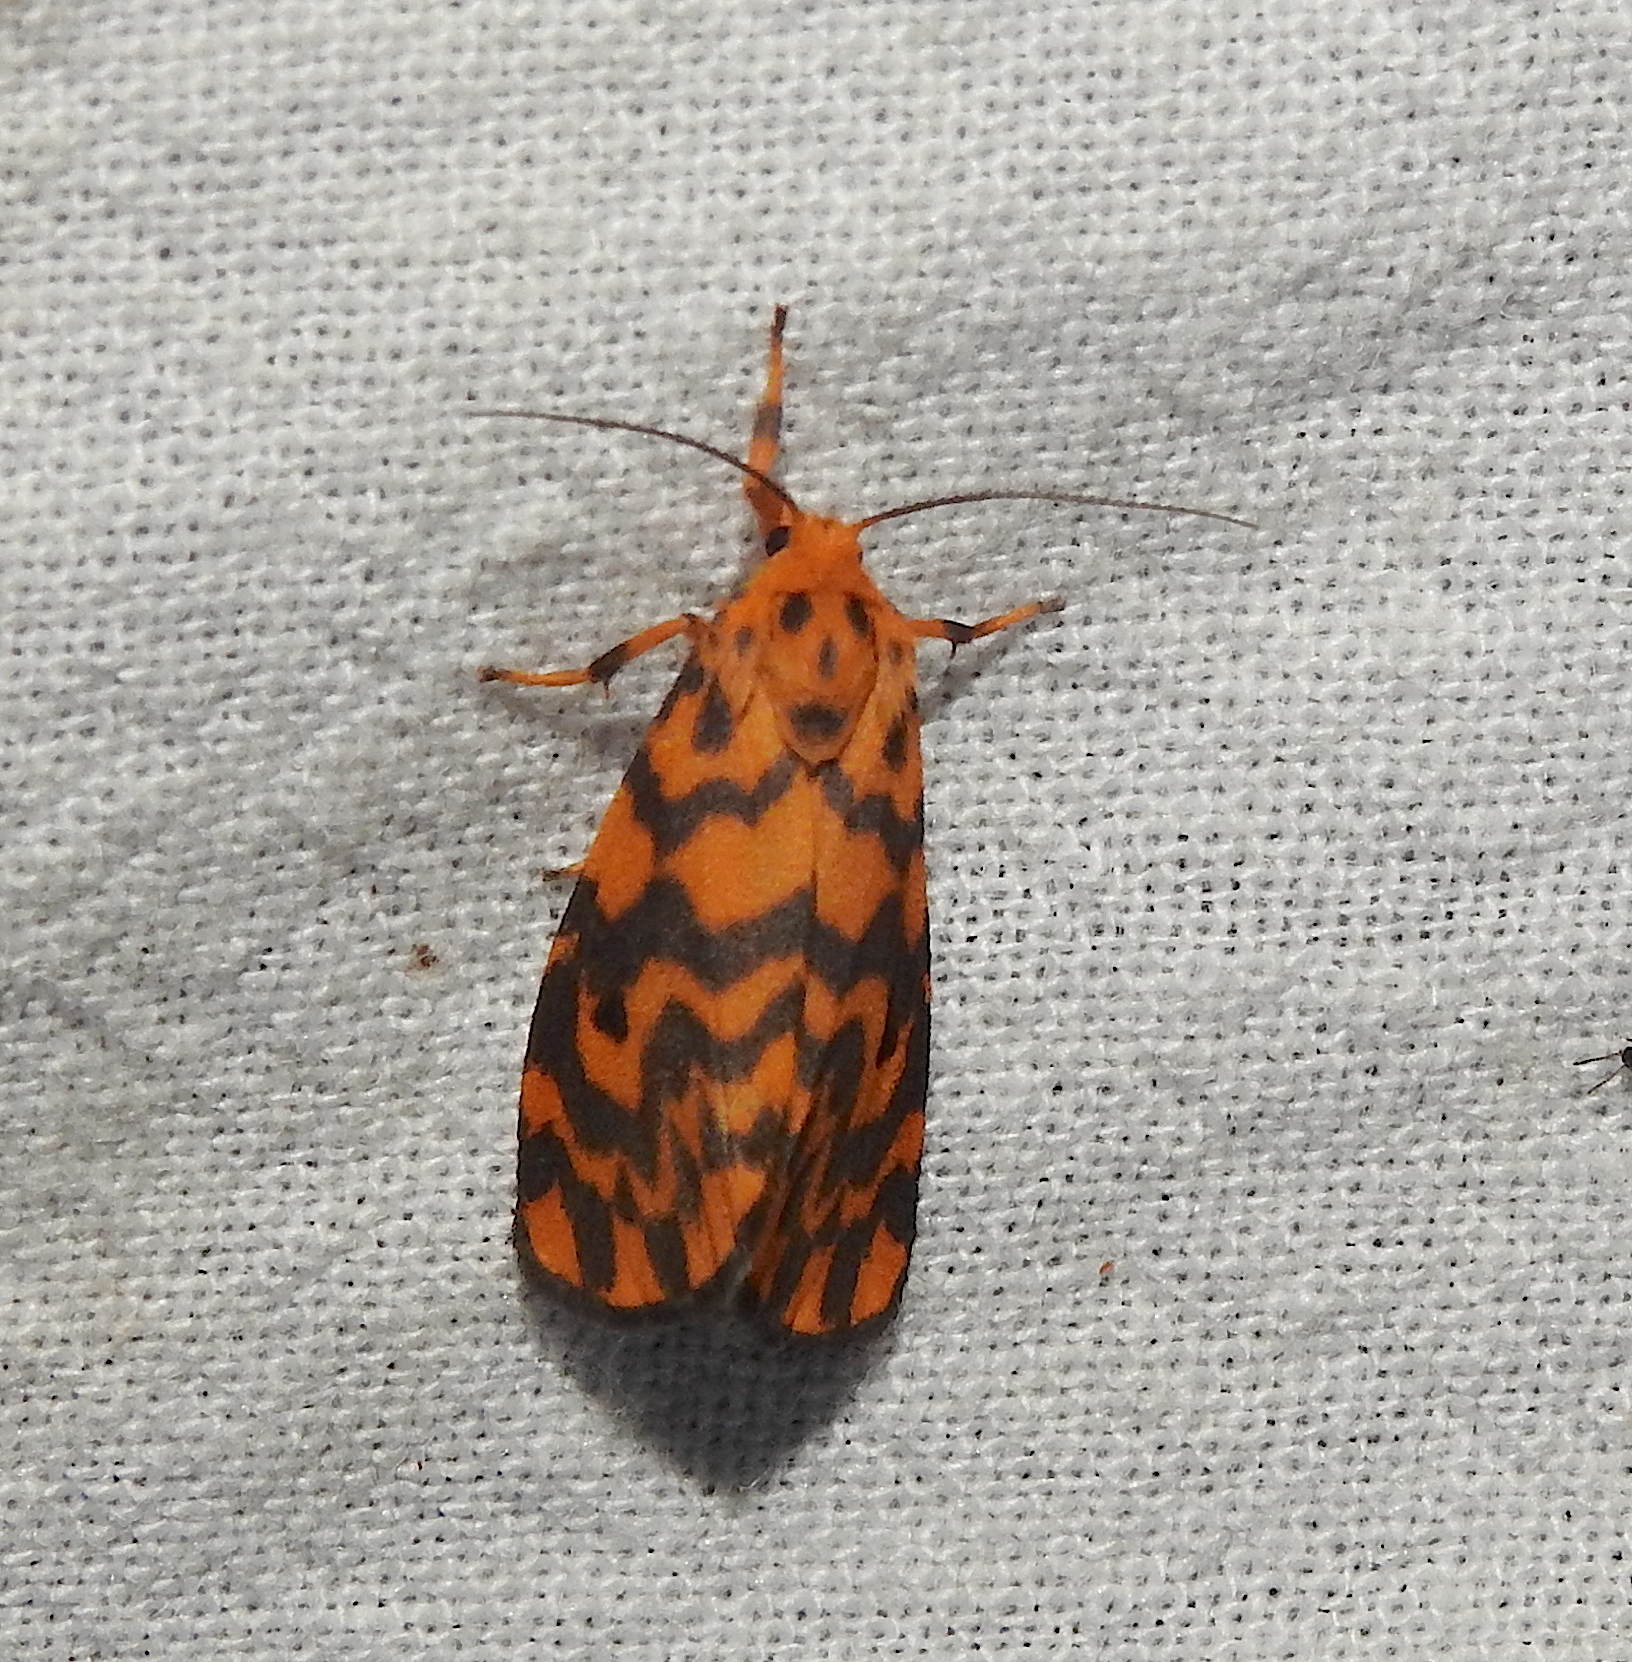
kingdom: Animalia
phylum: Arthropoda
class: Insecta
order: Lepidoptera
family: Erebidae
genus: Nepita
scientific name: Nepita conferta
